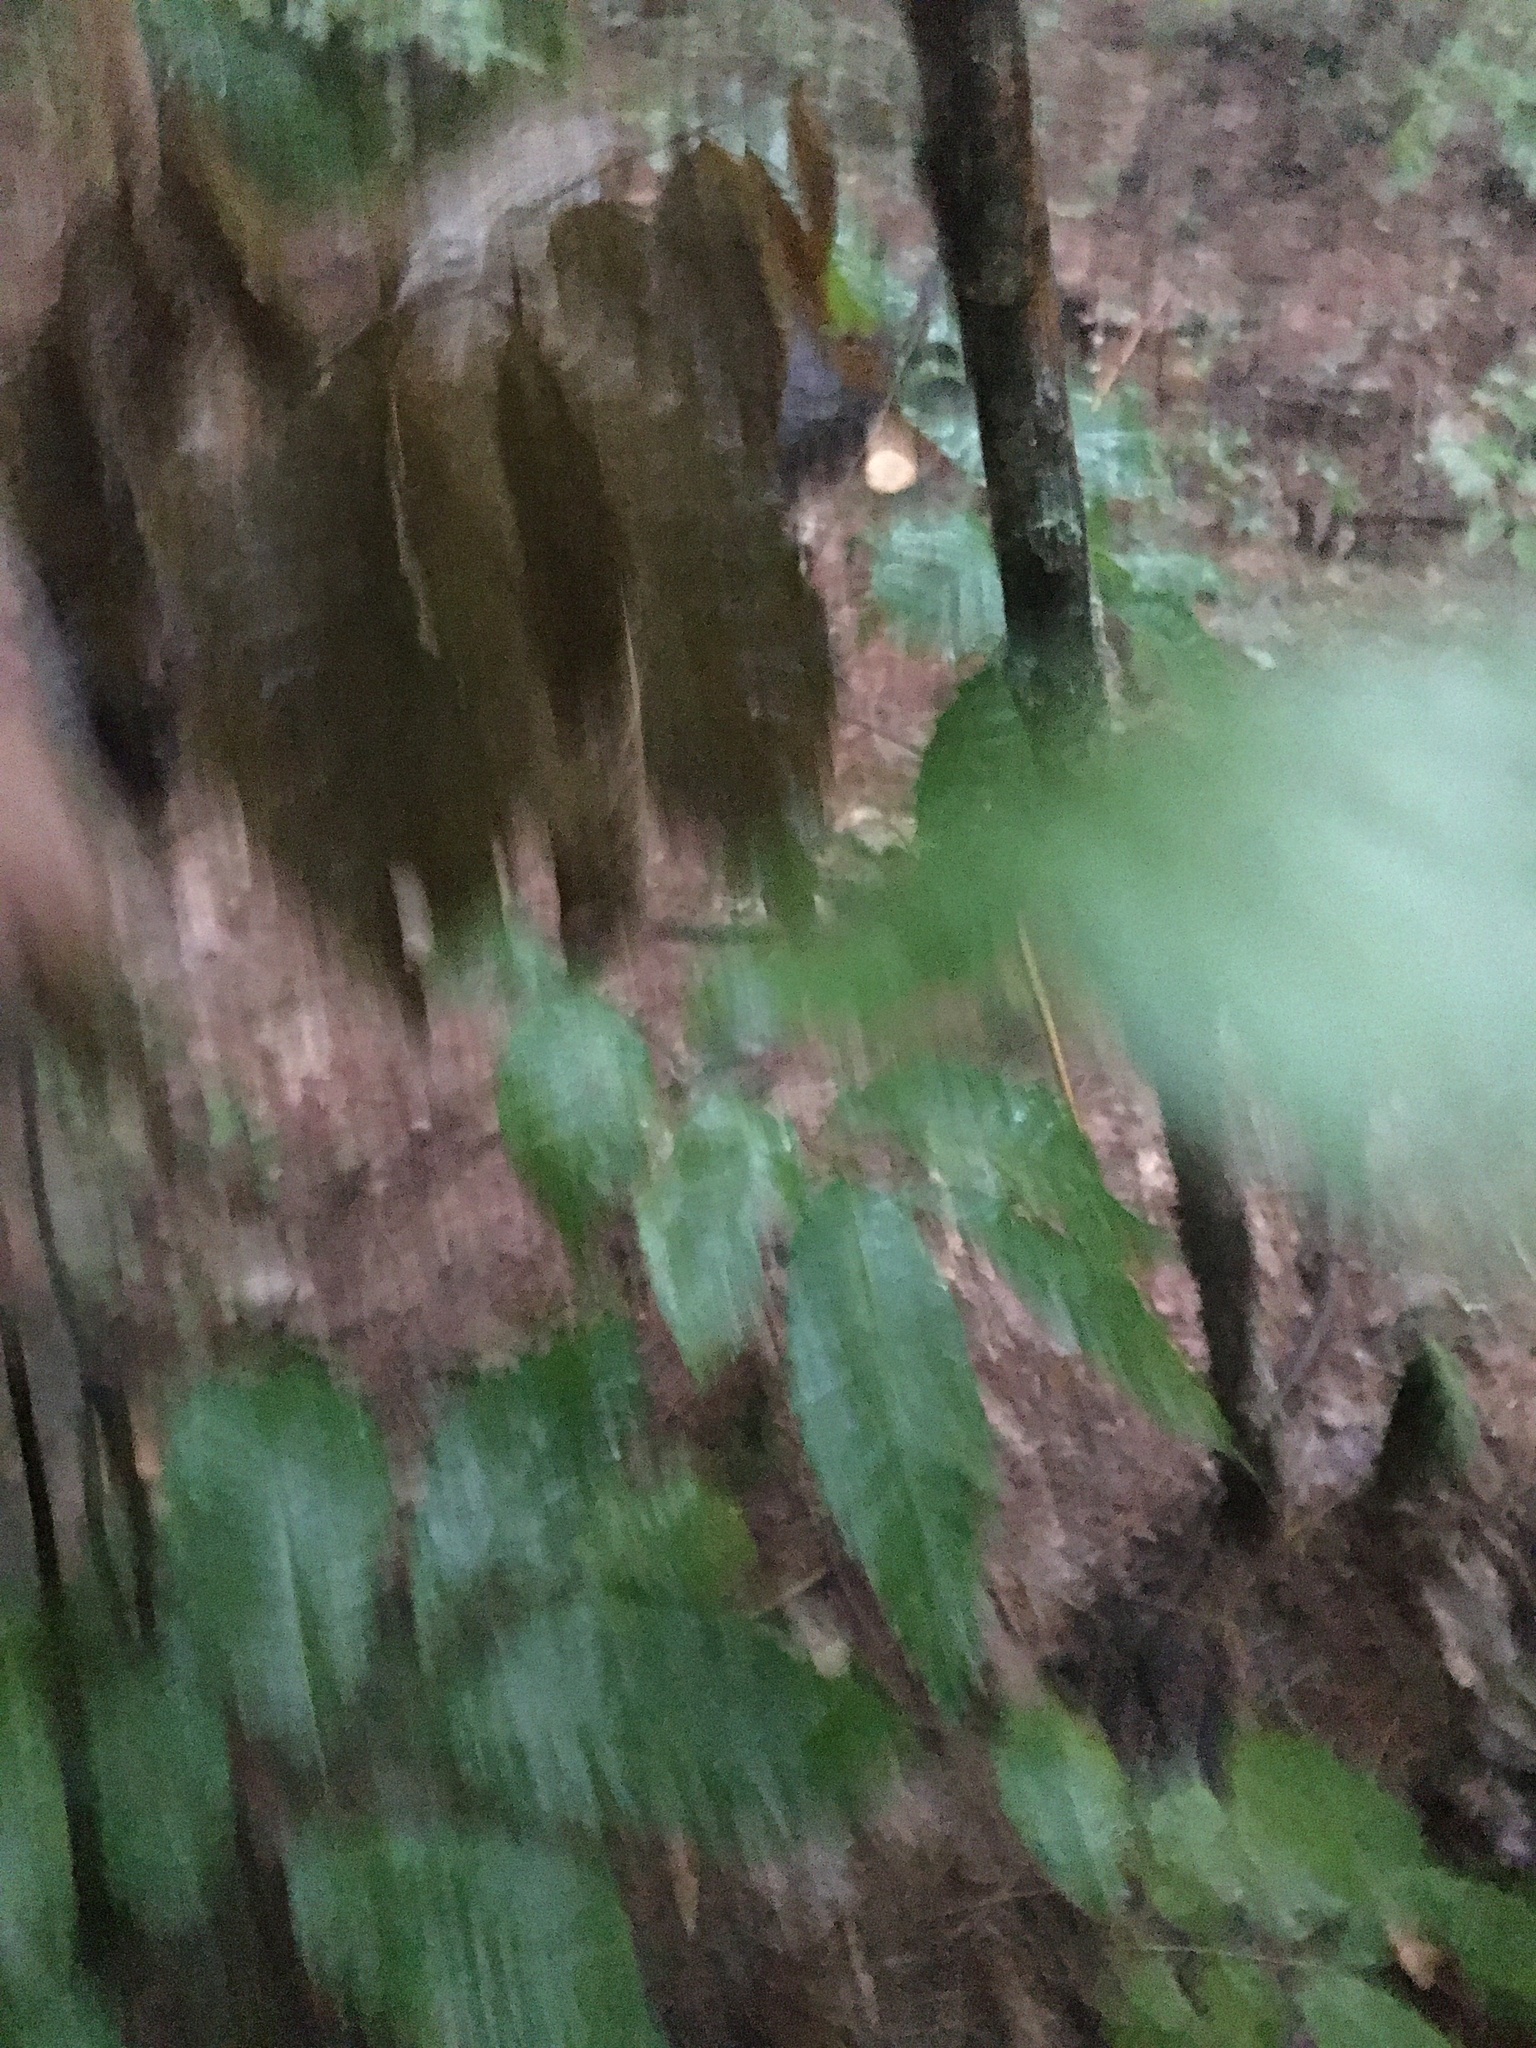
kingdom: Plantae
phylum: Tracheophyta
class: Magnoliopsida
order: Fagales
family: Fagaceae
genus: Castanea
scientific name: Castanea dentata
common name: American chestnut
